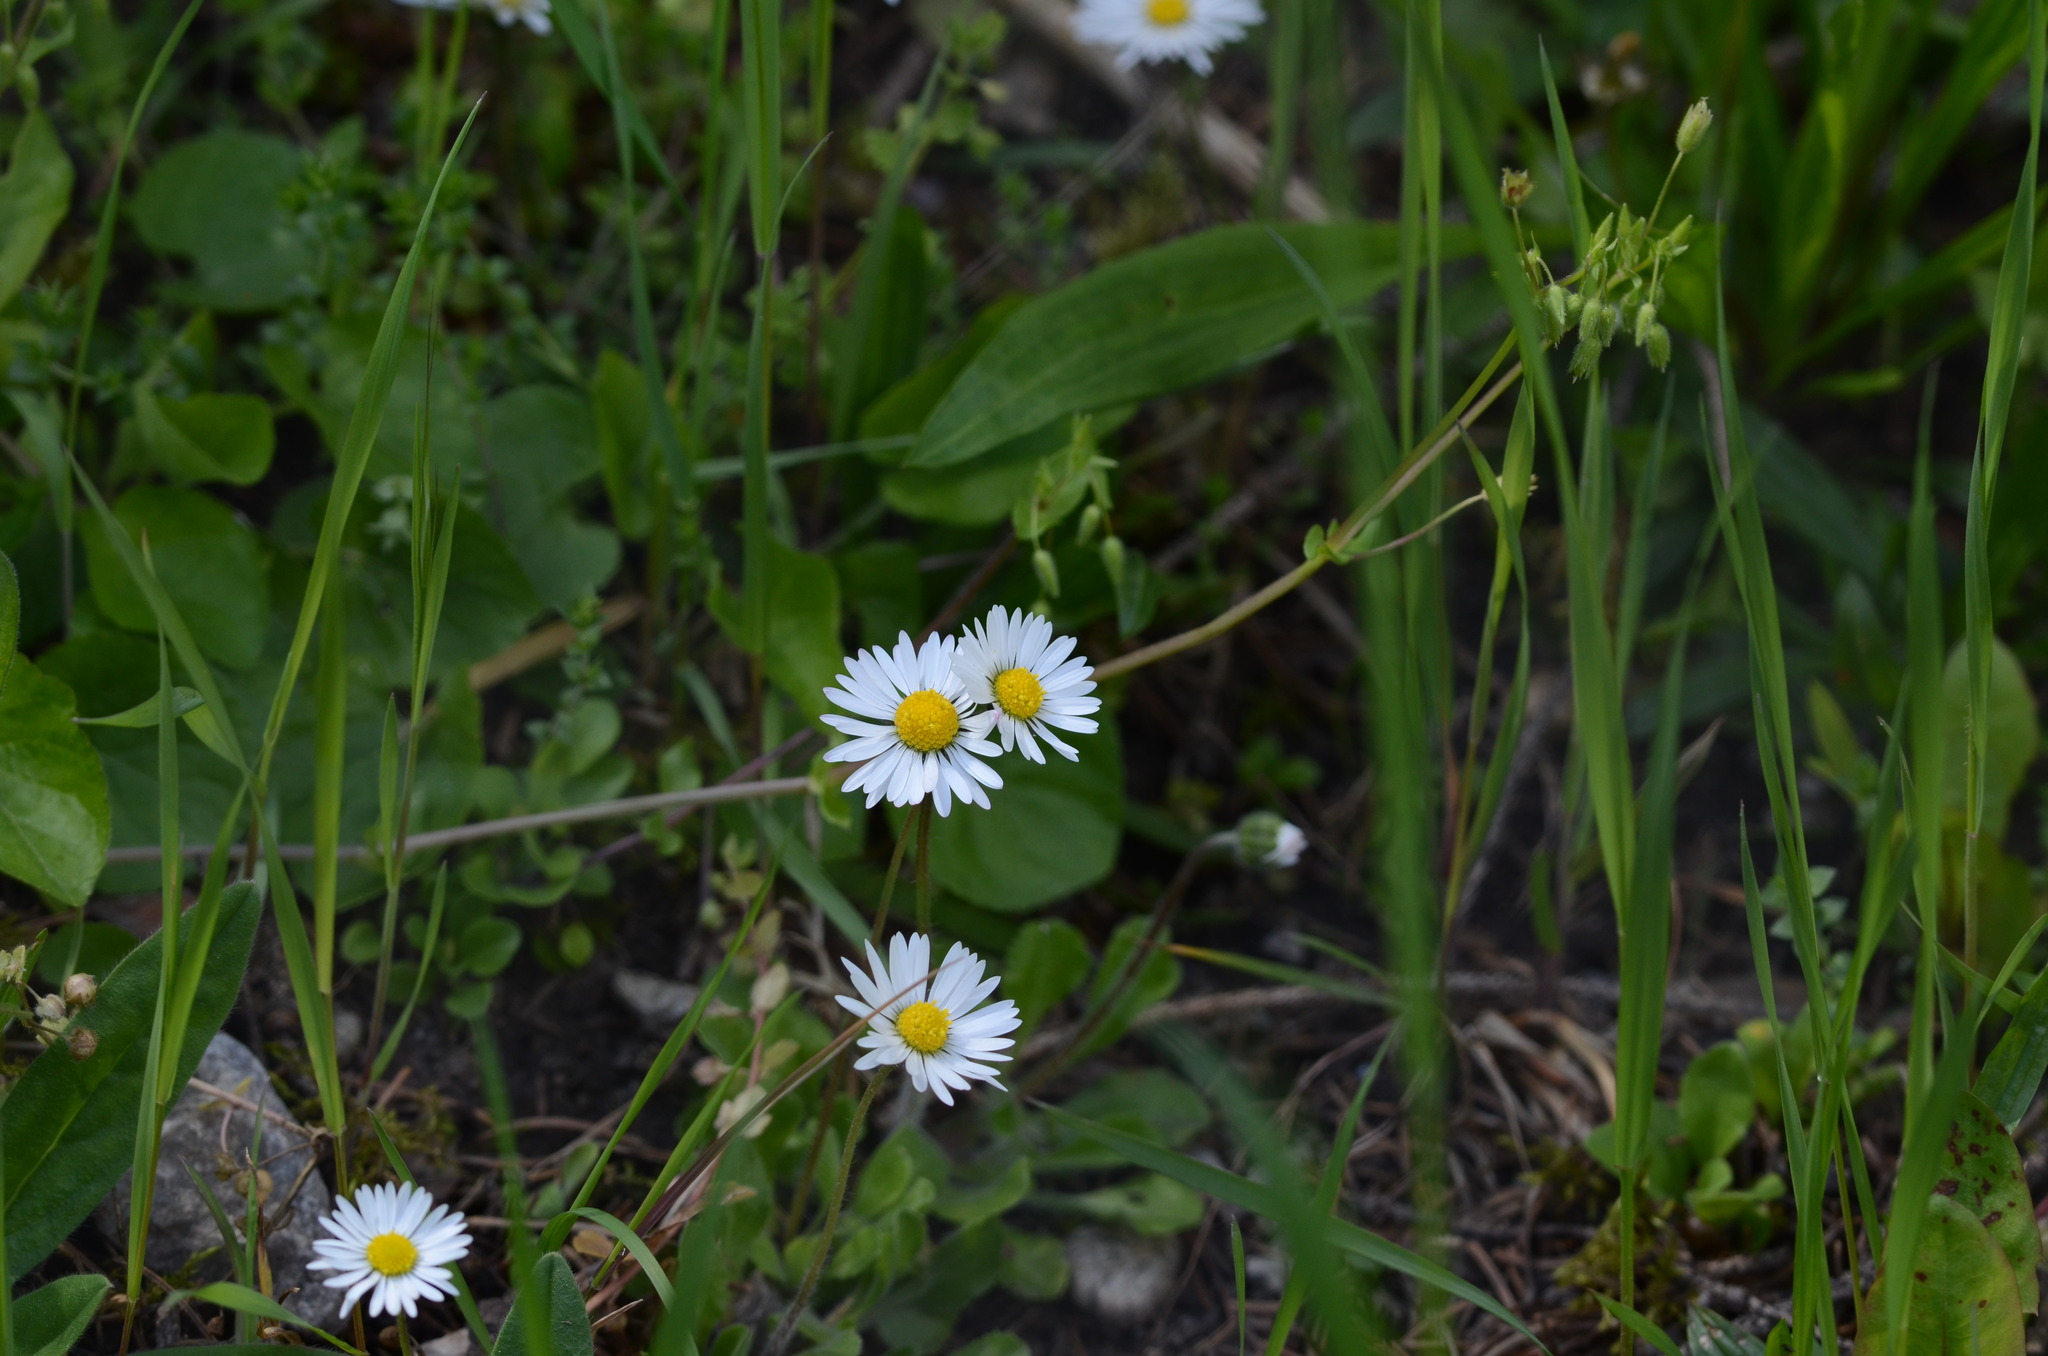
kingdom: Plantae
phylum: Tracheophyta
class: Magnoliopsida
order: Asterales
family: Asteraceae
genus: Bellis
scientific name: Bellis perennis
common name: Lawndaisy
